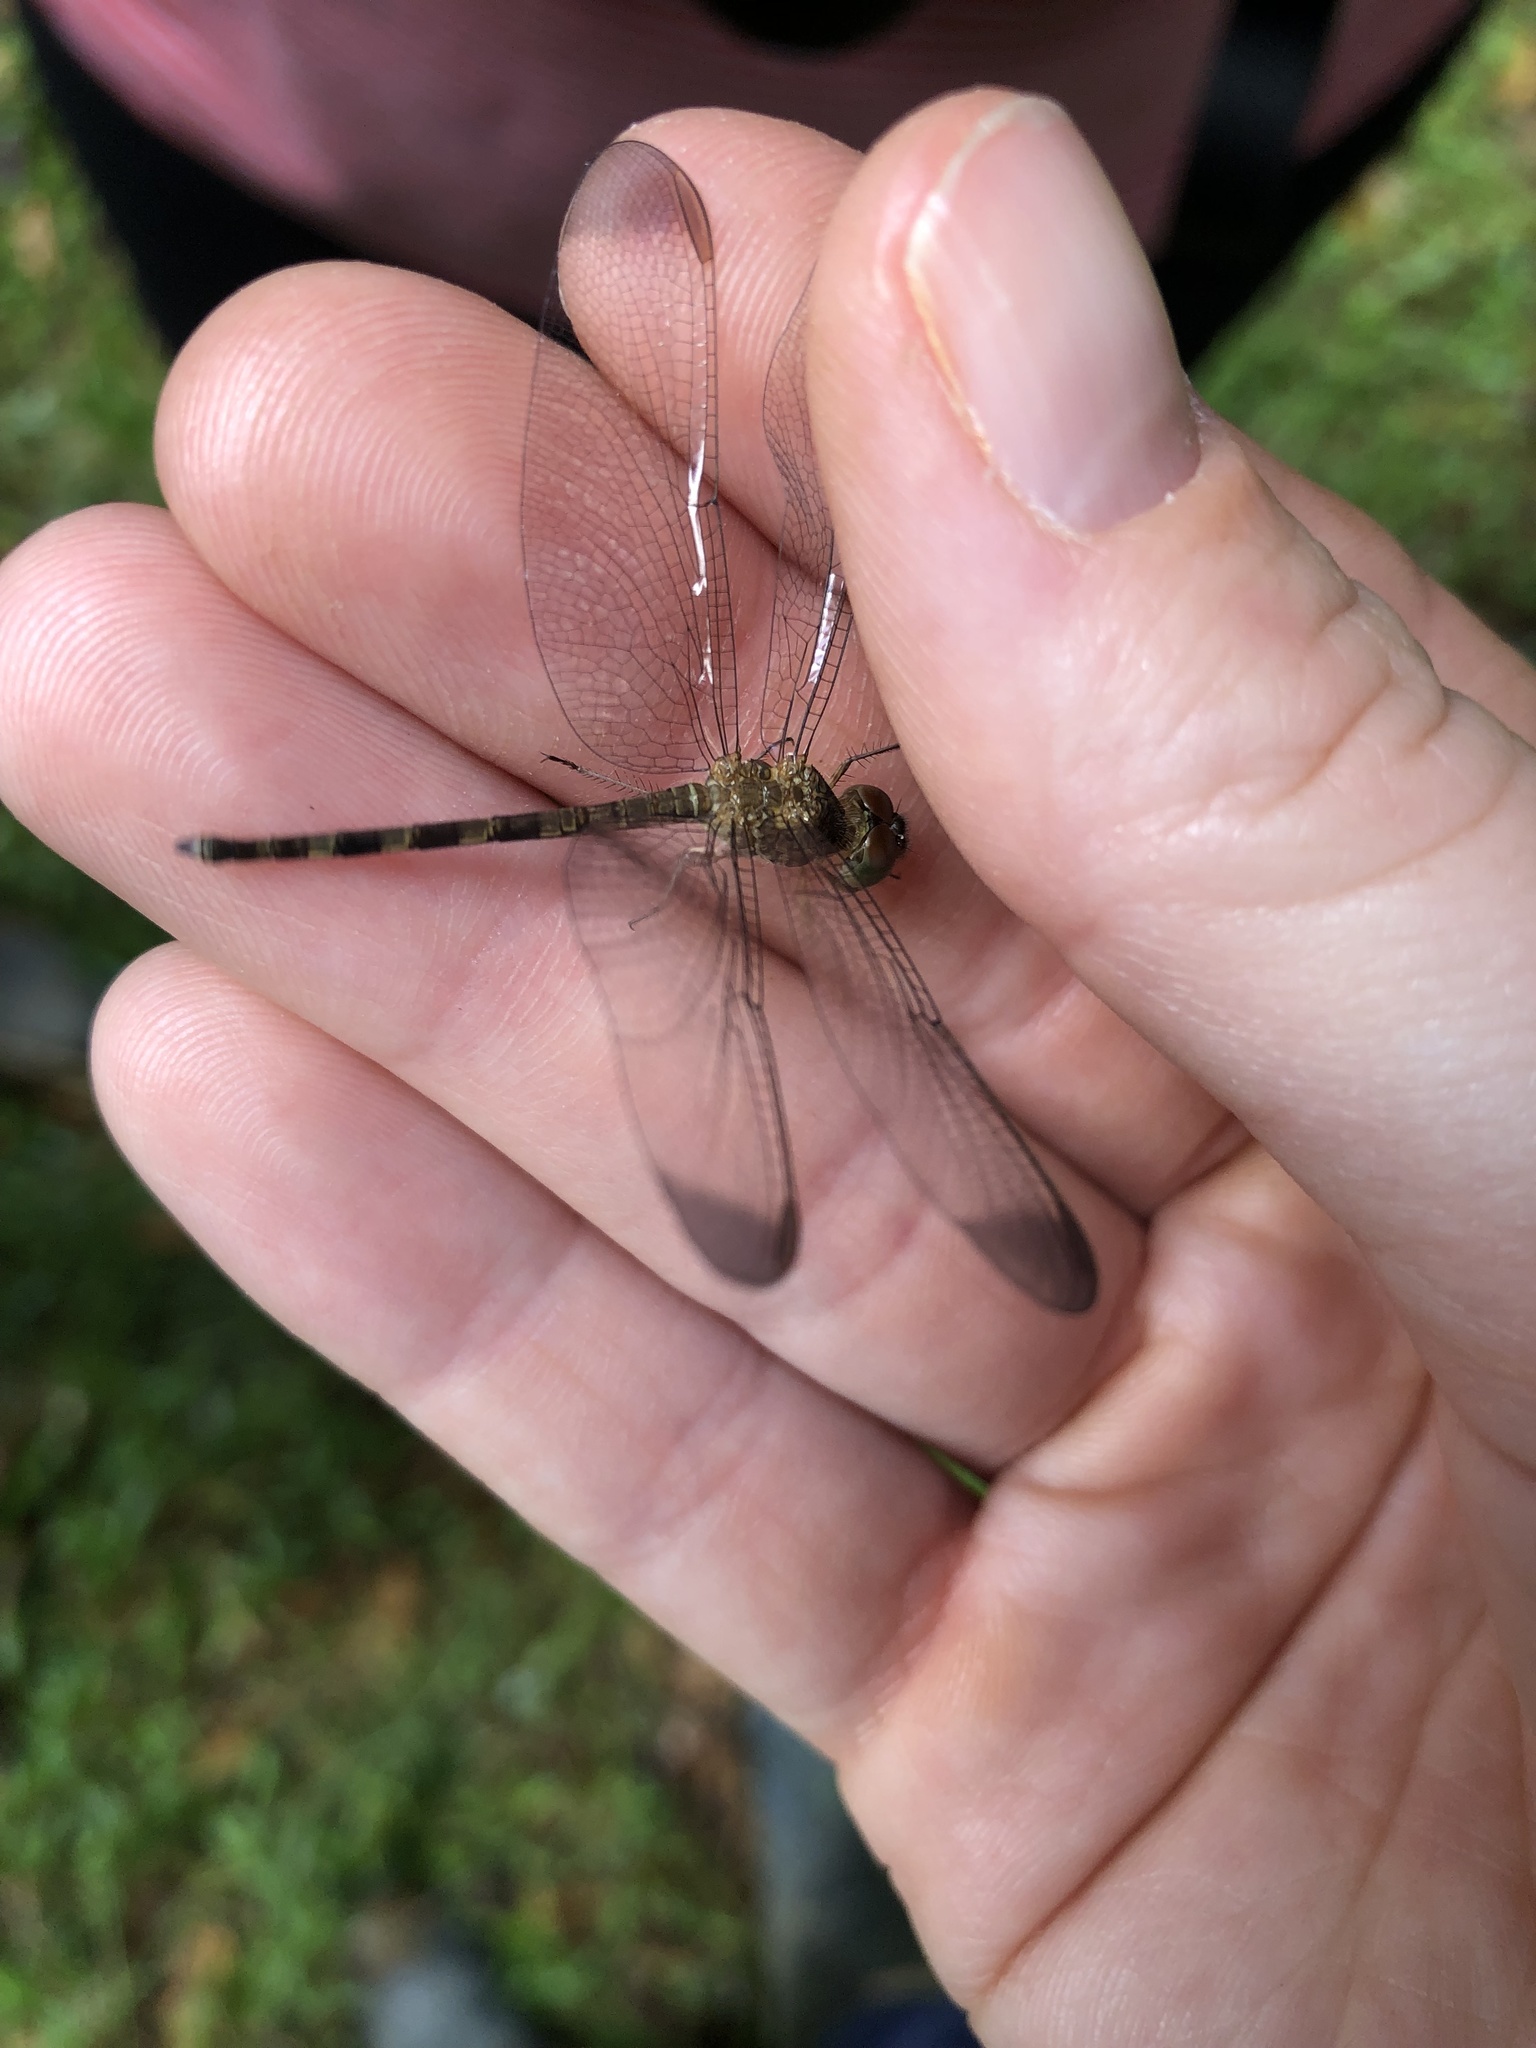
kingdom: Animalia
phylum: Arthropoda
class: Insecta
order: Odonata
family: Libellulidae
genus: Uracis
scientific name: Uracis imbuta
